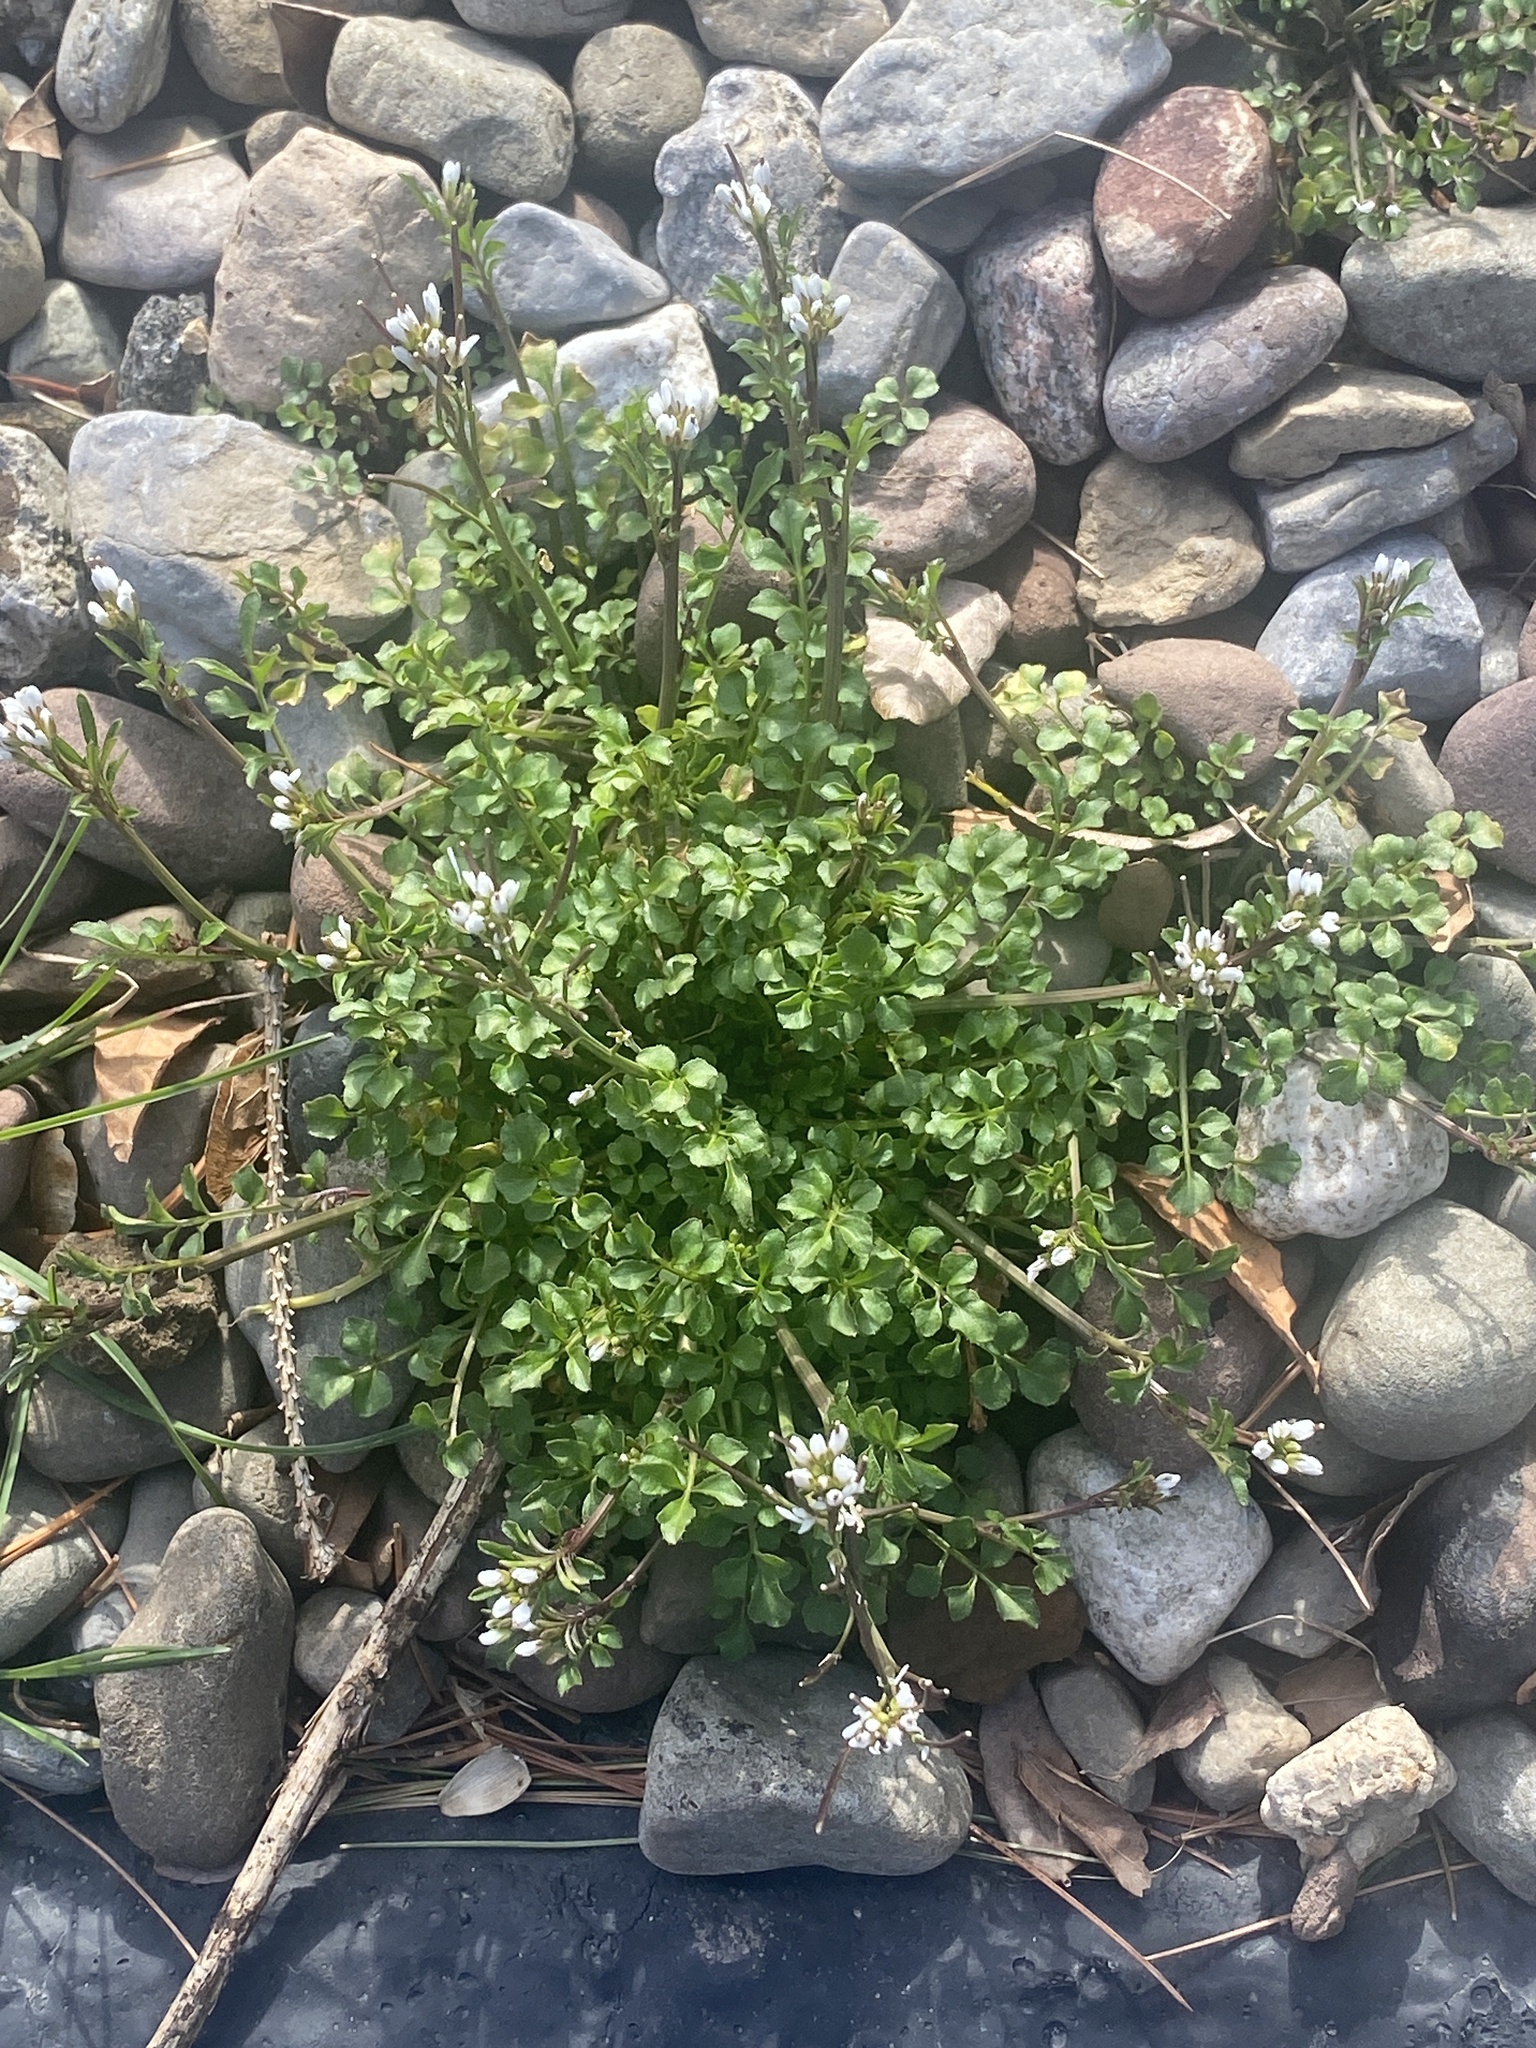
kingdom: Plantae
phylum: Tracheophyta
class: Magnoliopsida
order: Brassicales
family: Brassicaceae
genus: Cardamine
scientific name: Cardamine hirsuta
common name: Hairy bittercress
